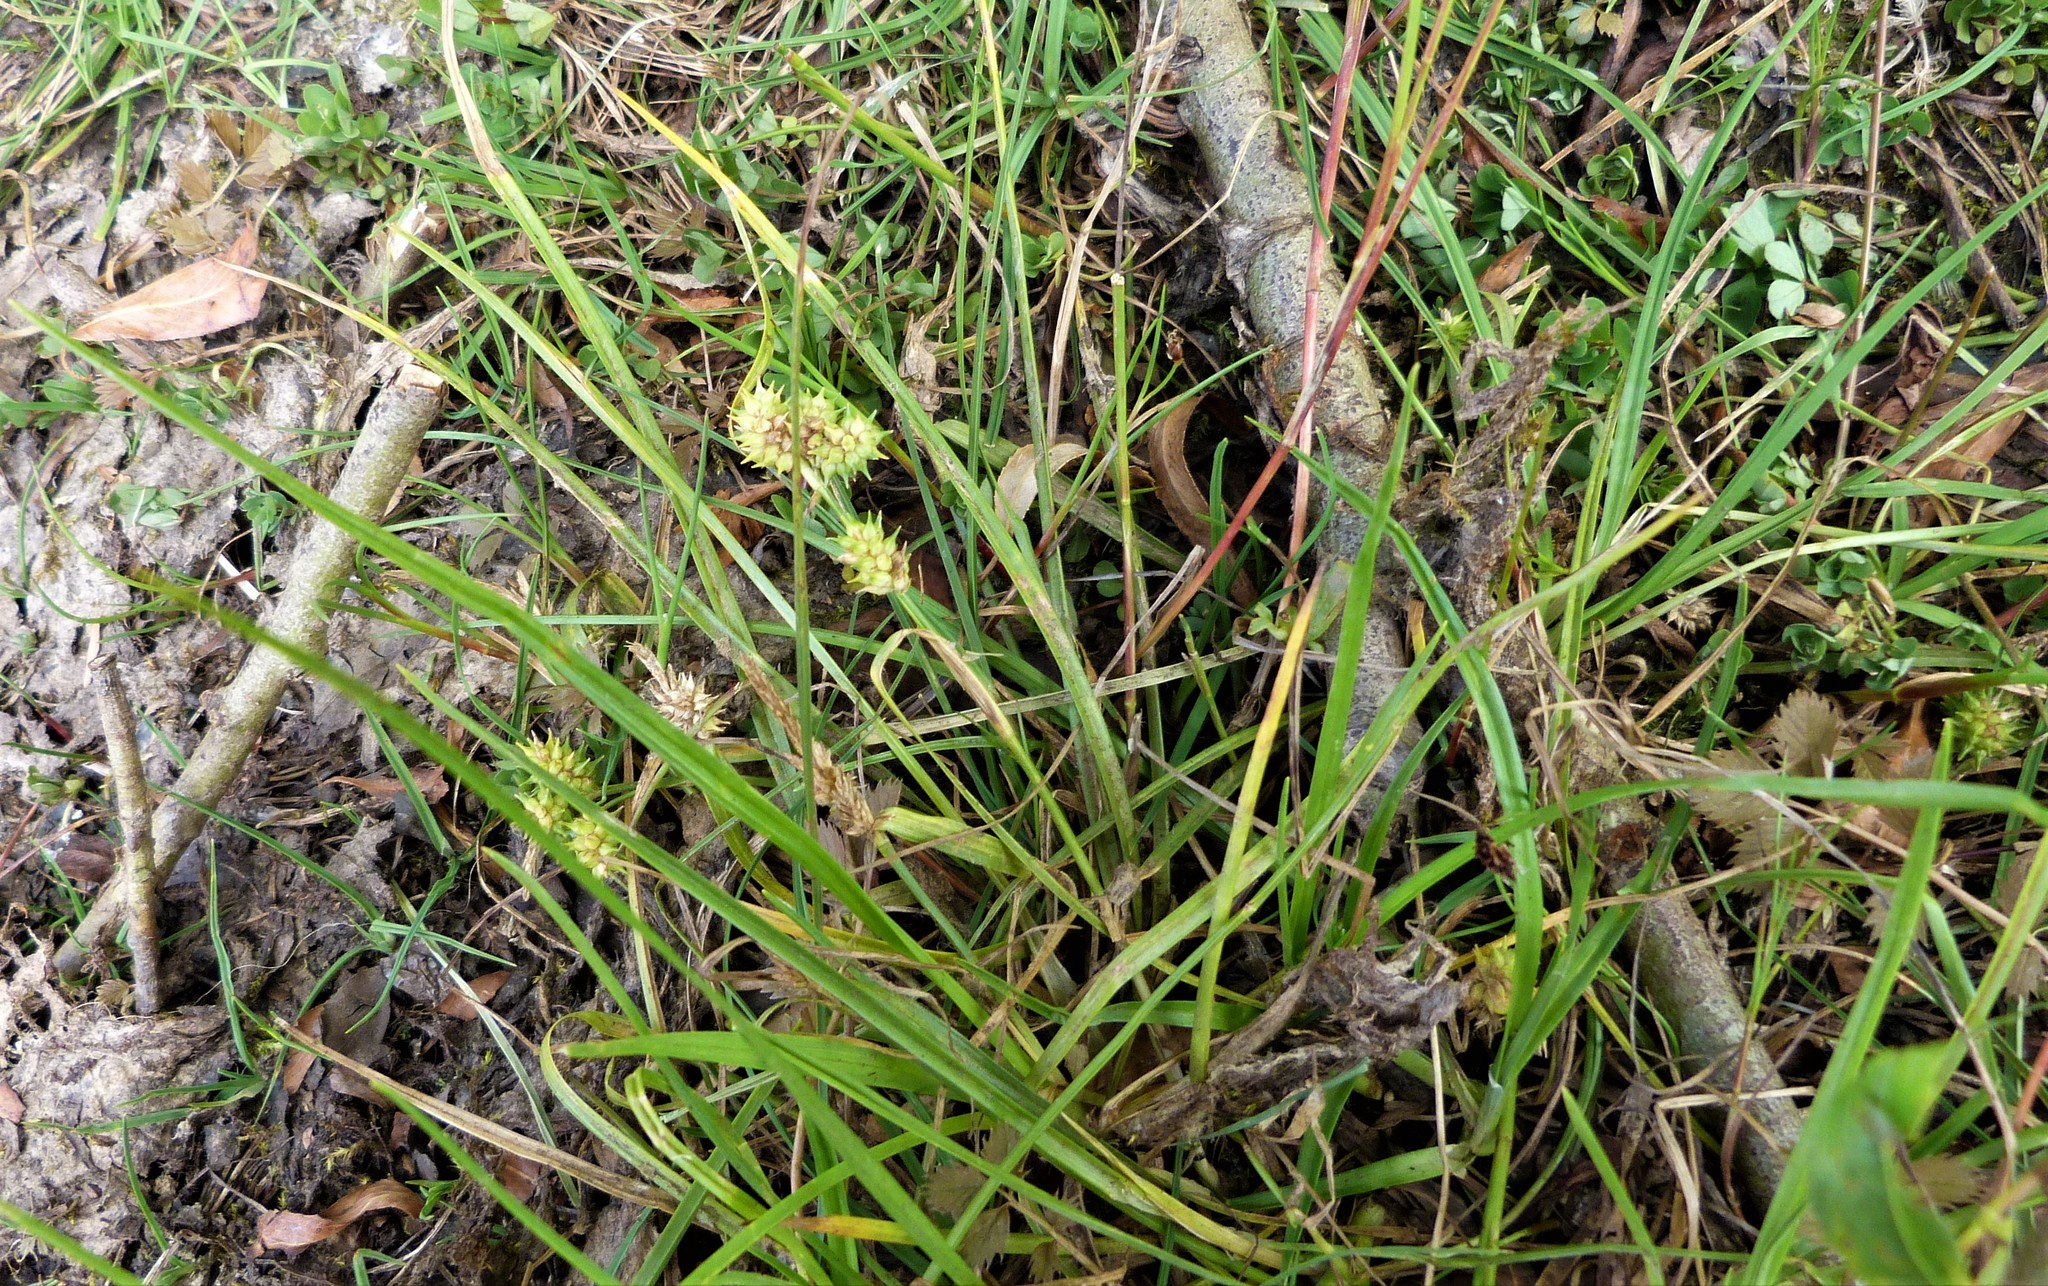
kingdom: Plantae
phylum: Tracheophyta
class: Liliopsida
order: Poales
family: Cyperaceae
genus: Carex
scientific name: Carex flaviformis
